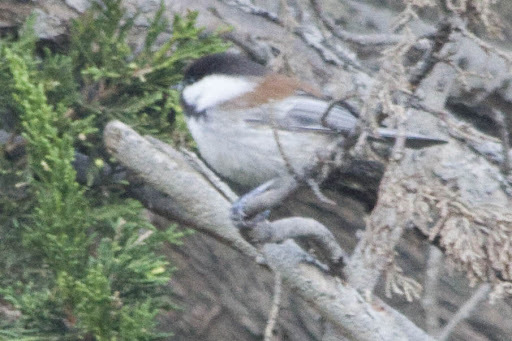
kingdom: Animalia
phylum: Chordata
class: Aves
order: Passeriformes
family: Paridae
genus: Poecile
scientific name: Poecile rufescens
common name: Chestnut-backed chickadee
